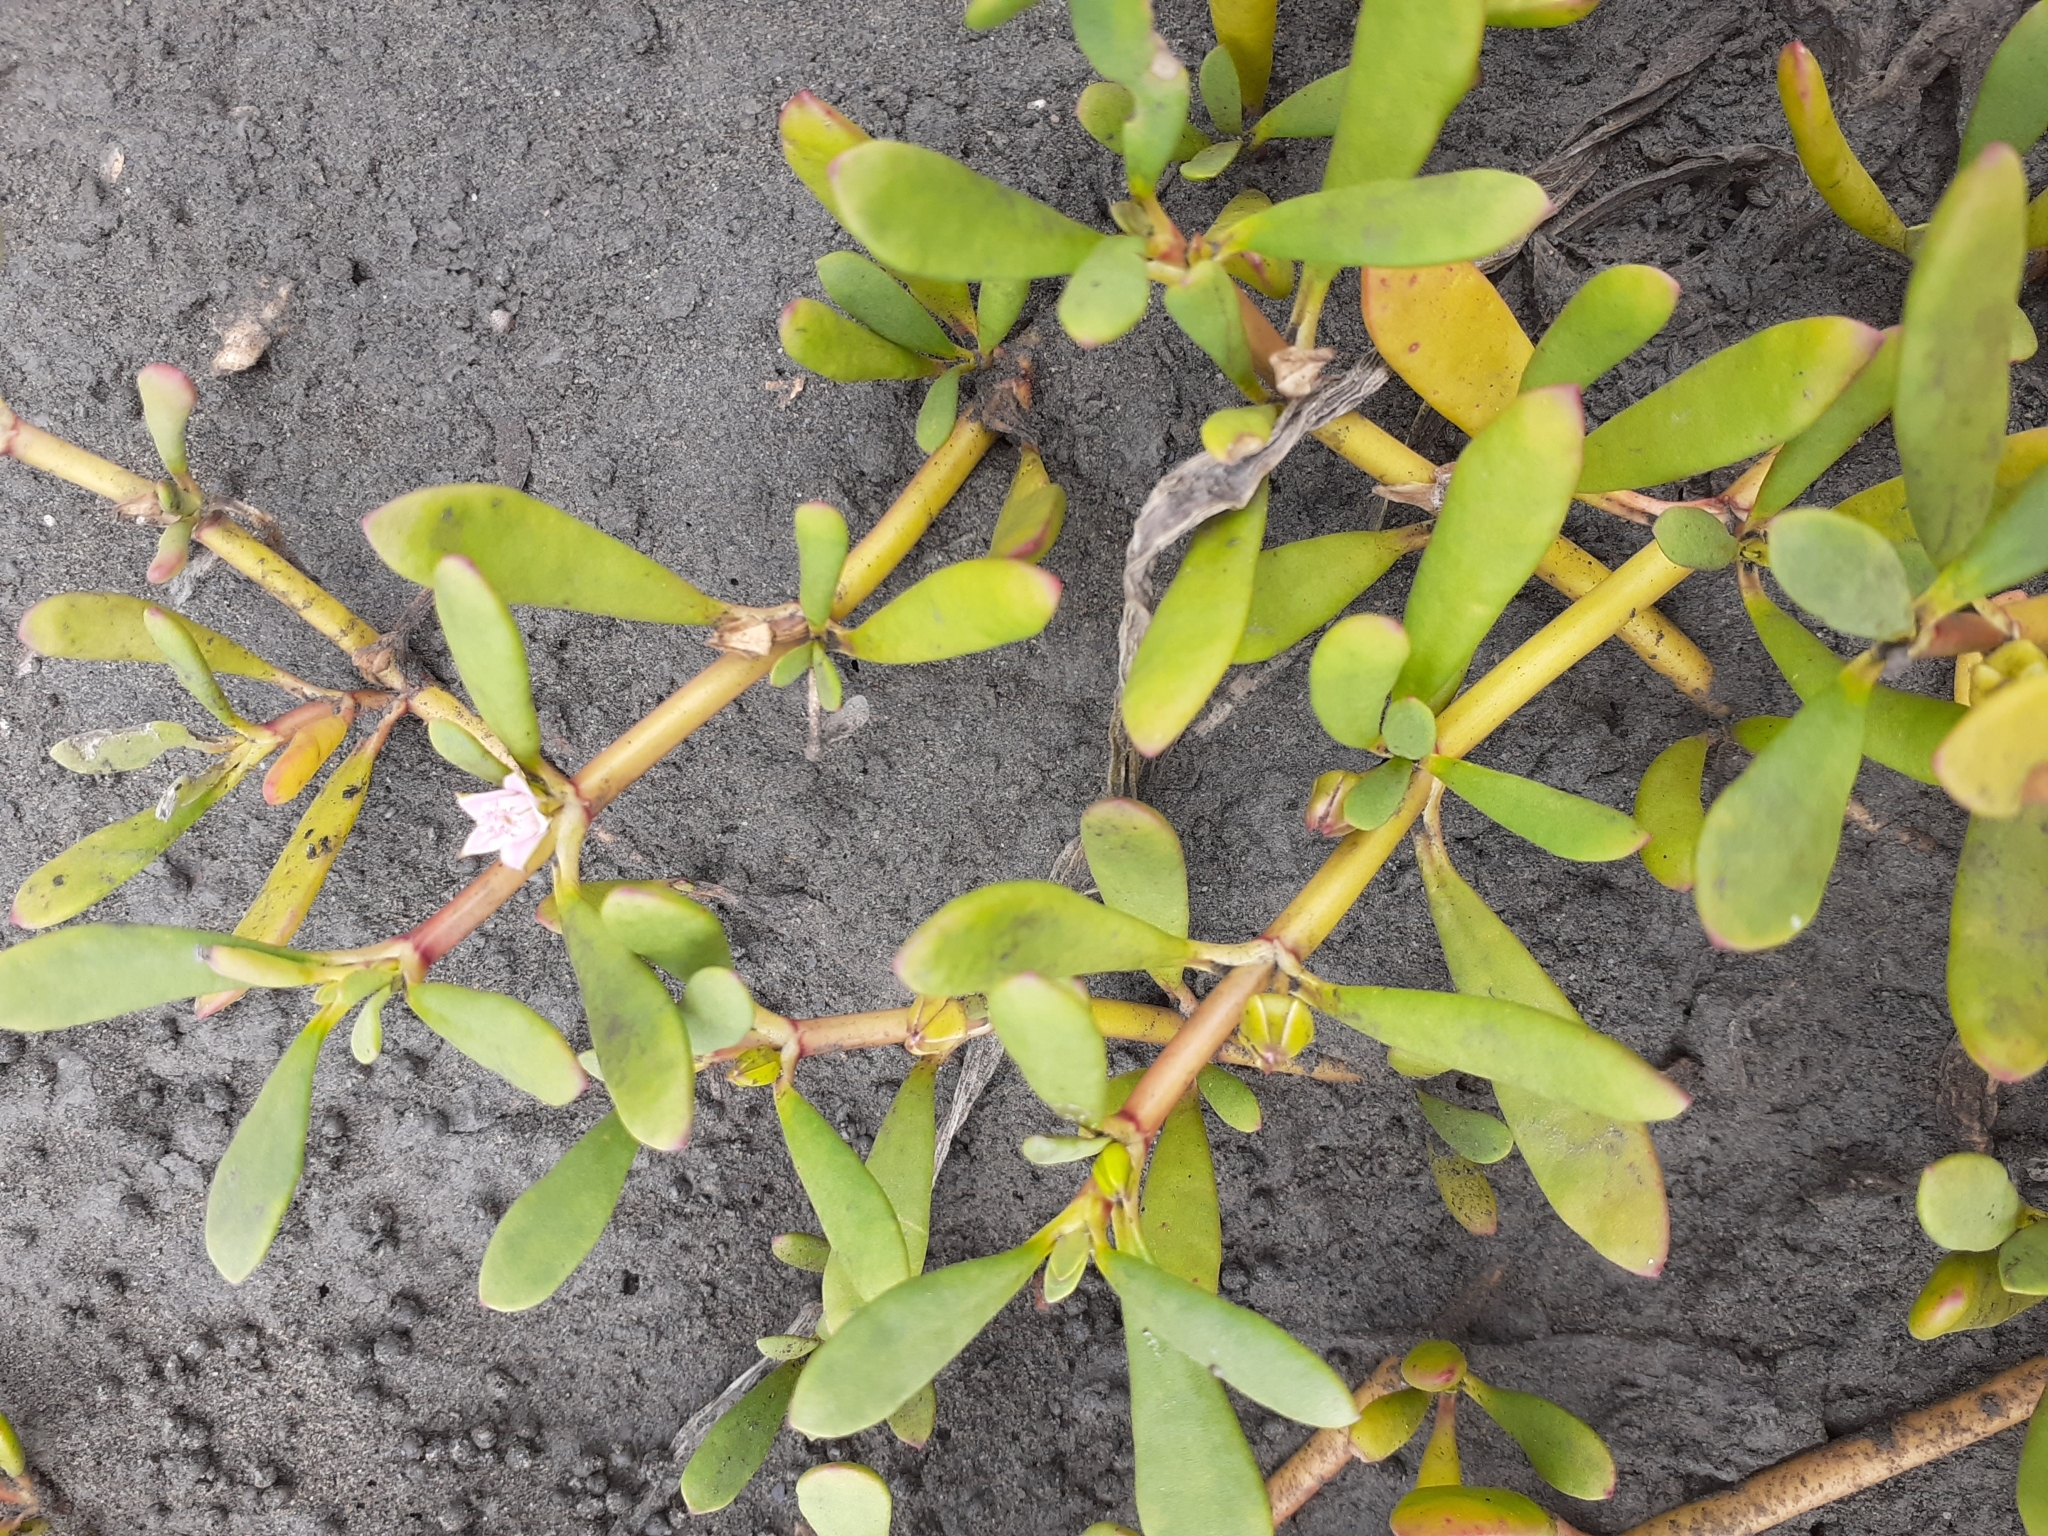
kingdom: Plantae
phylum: Tracheophyta
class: Magnoliopsida
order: Caryophyllales
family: Aizoaceae
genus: Sesuvium
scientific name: Sesuvium portulacastrum
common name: Sea-purslane
